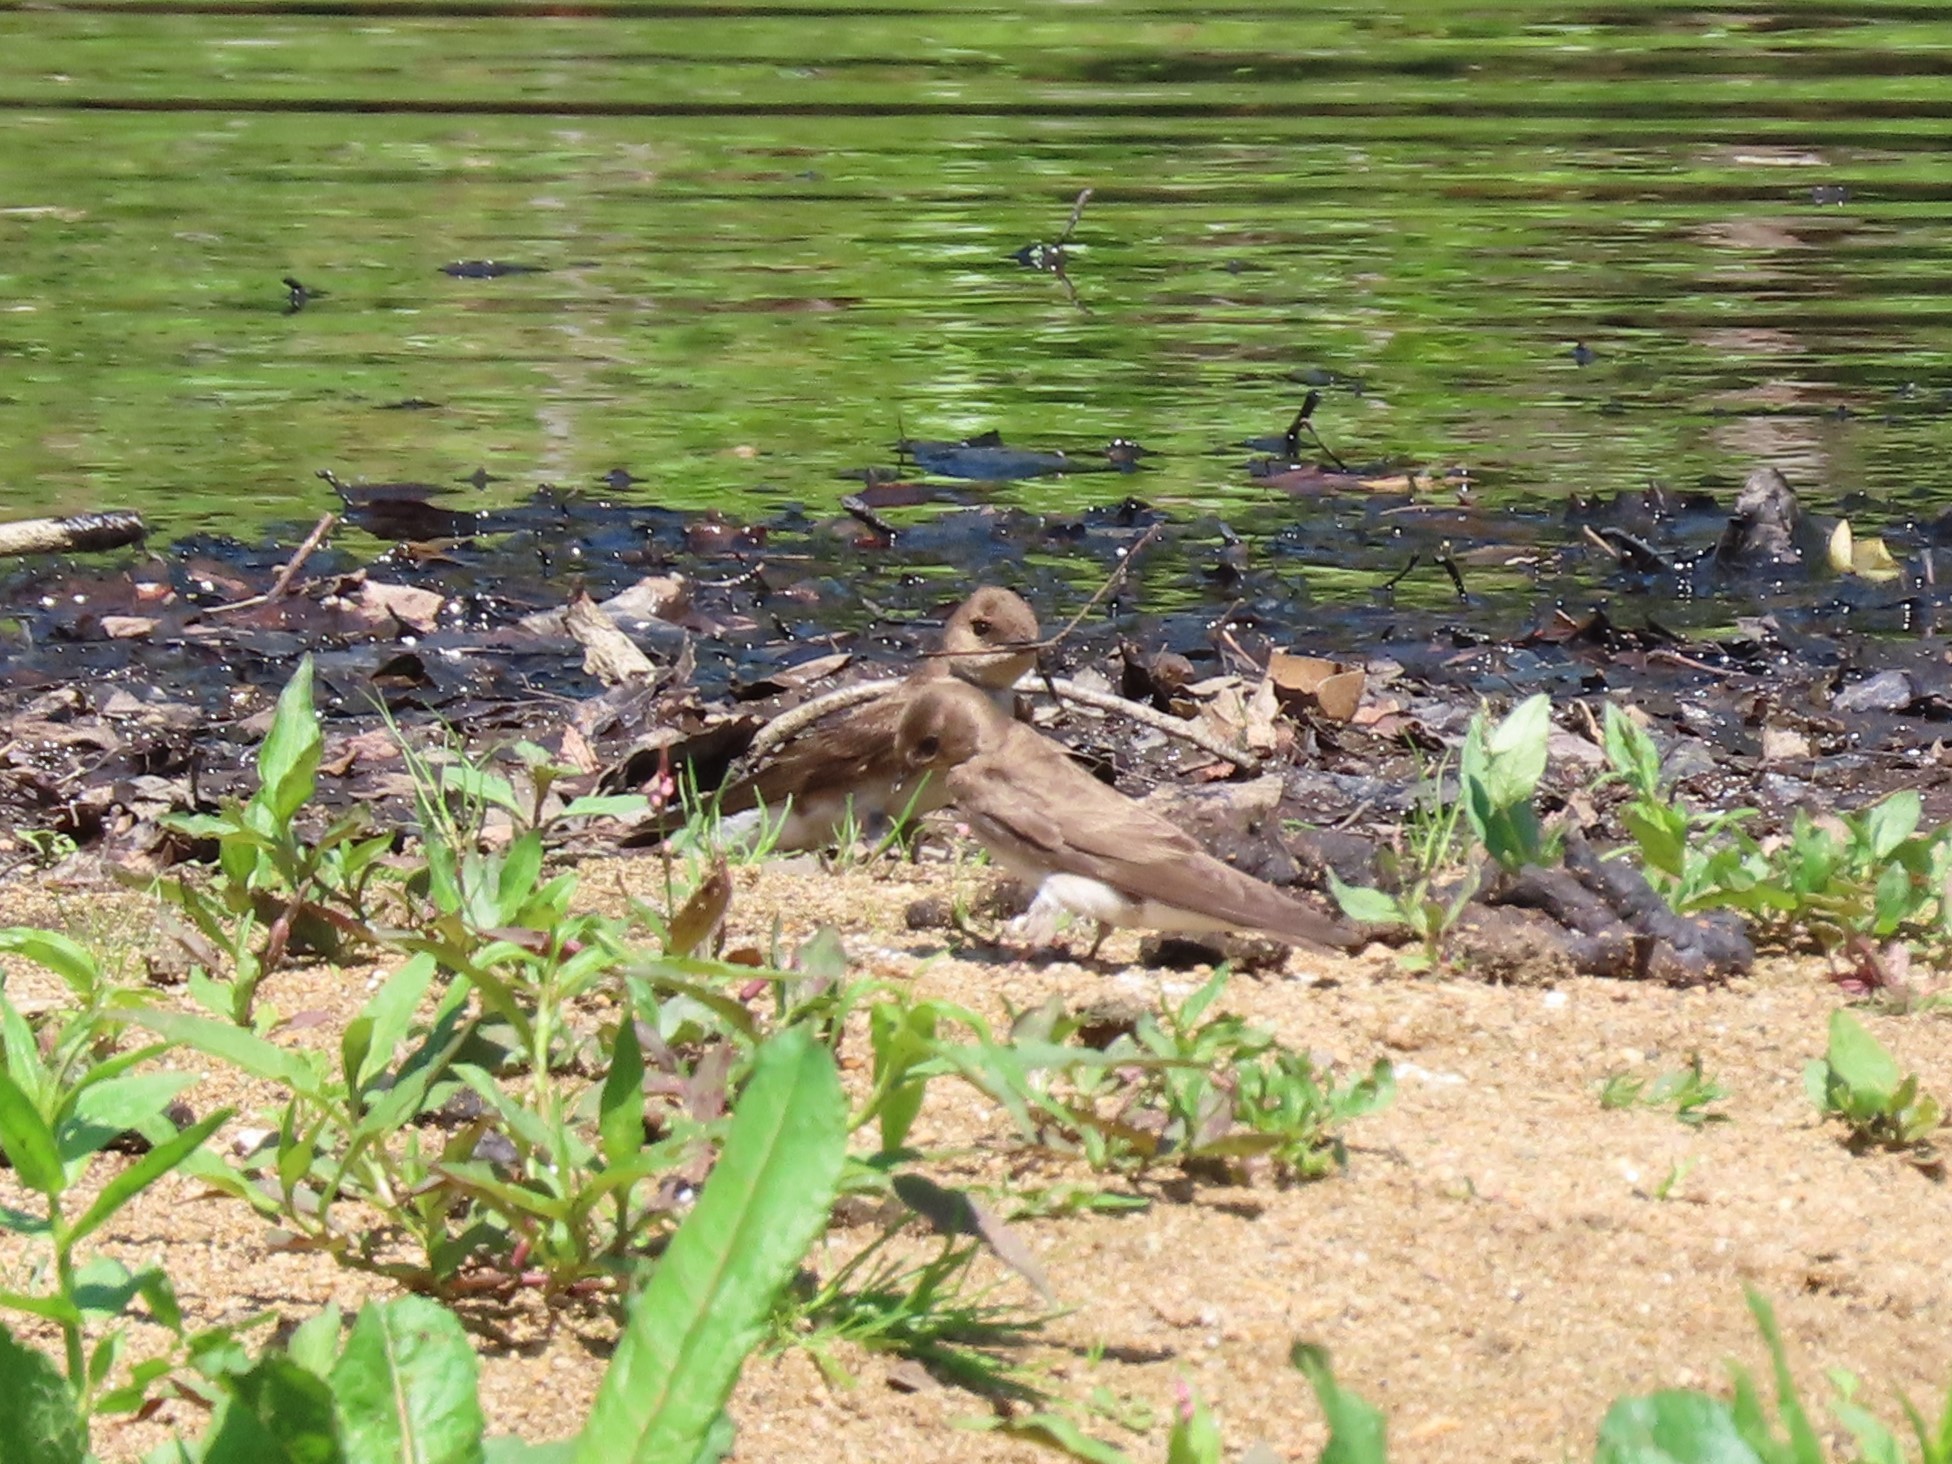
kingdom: Animalia
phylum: Chordata
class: Aves
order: Passeriformes
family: Hirundinidae
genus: Stelgidopteryx
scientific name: Stelgidopteryx serripennis
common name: Northern rough-winged swallow
